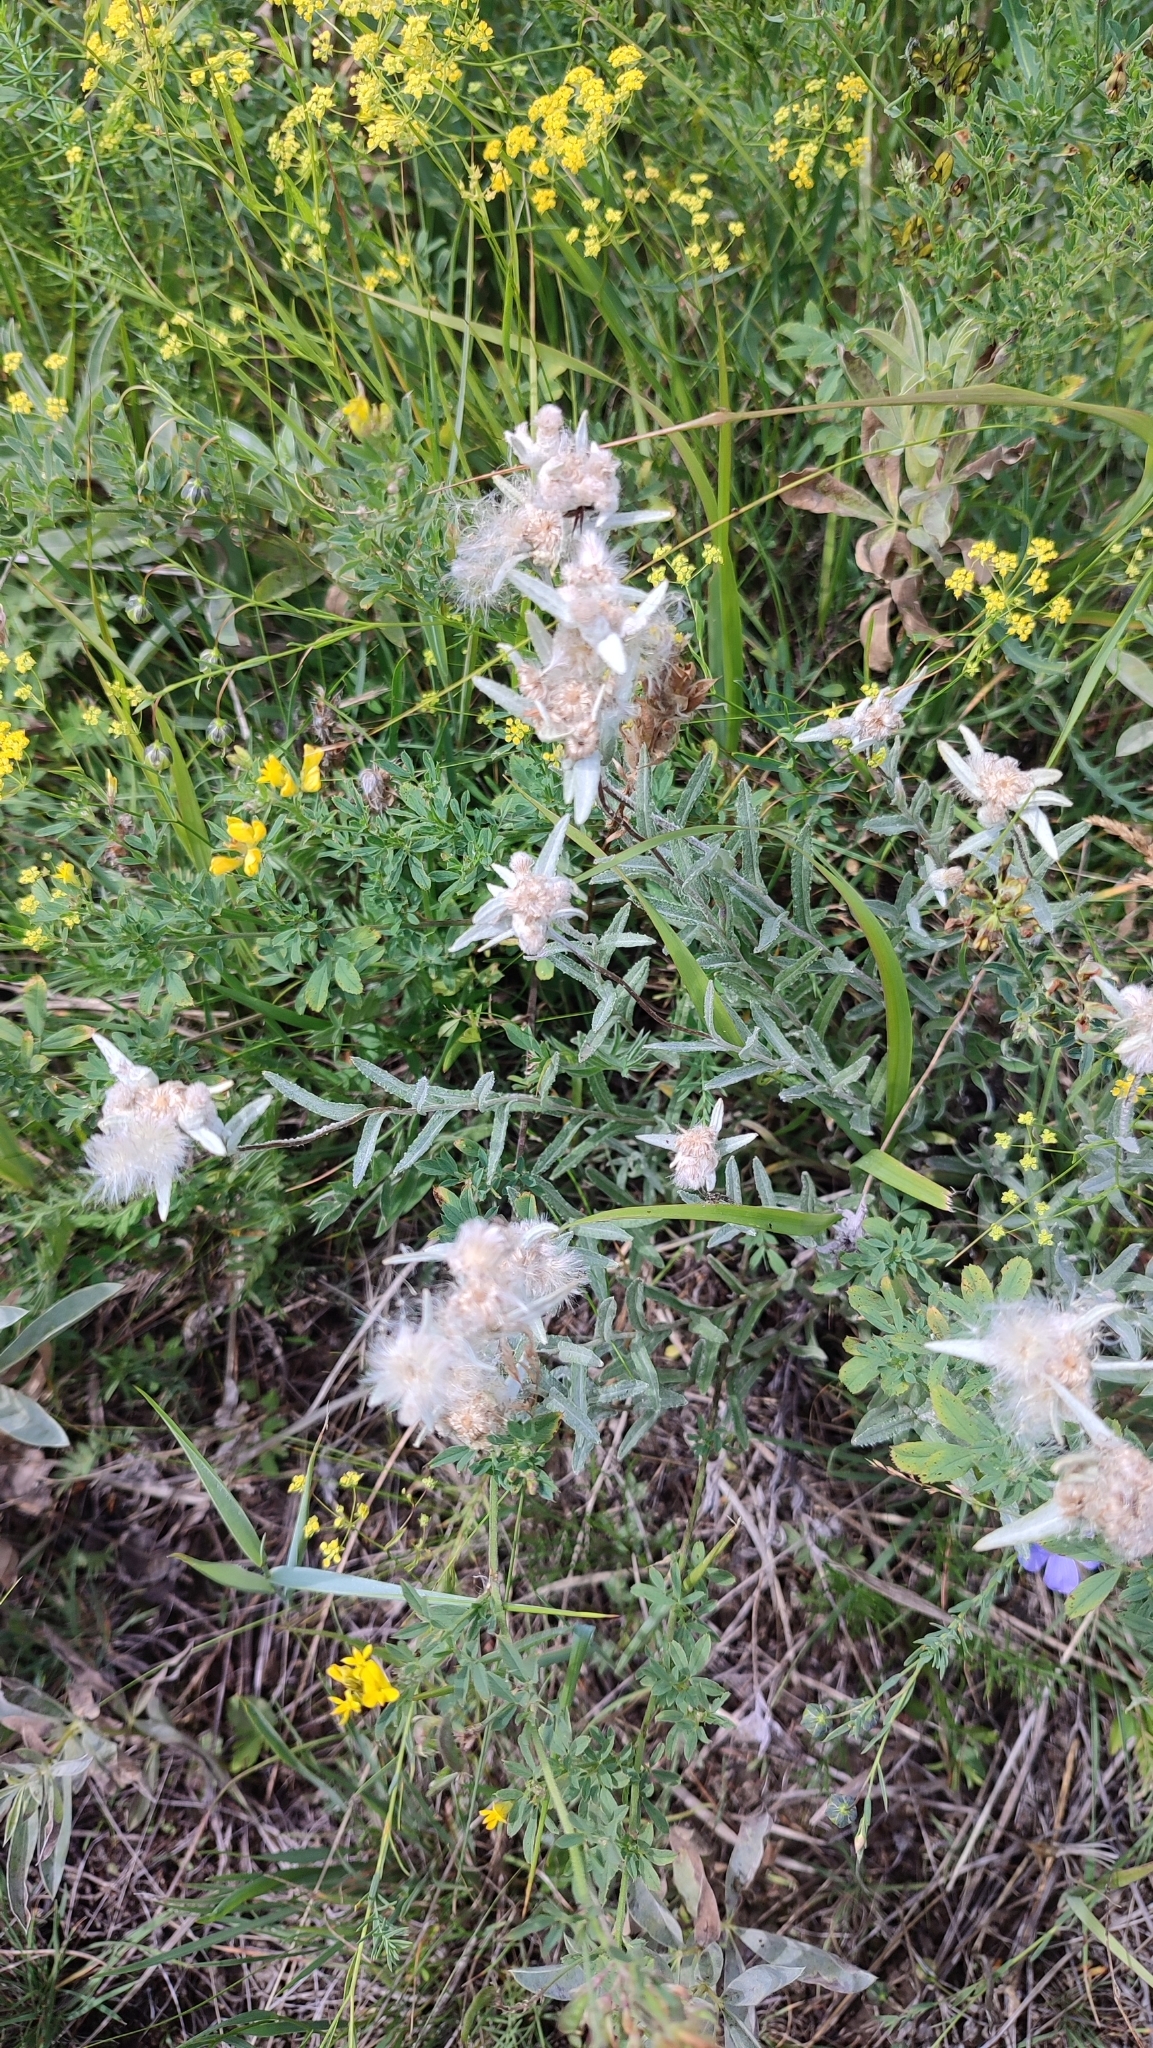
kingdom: Plantae
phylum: Tracheophyta
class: Magnoliopsida
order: Asterales
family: Asteraceae
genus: Leontopodium
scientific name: Leontopodium leontopodioides
